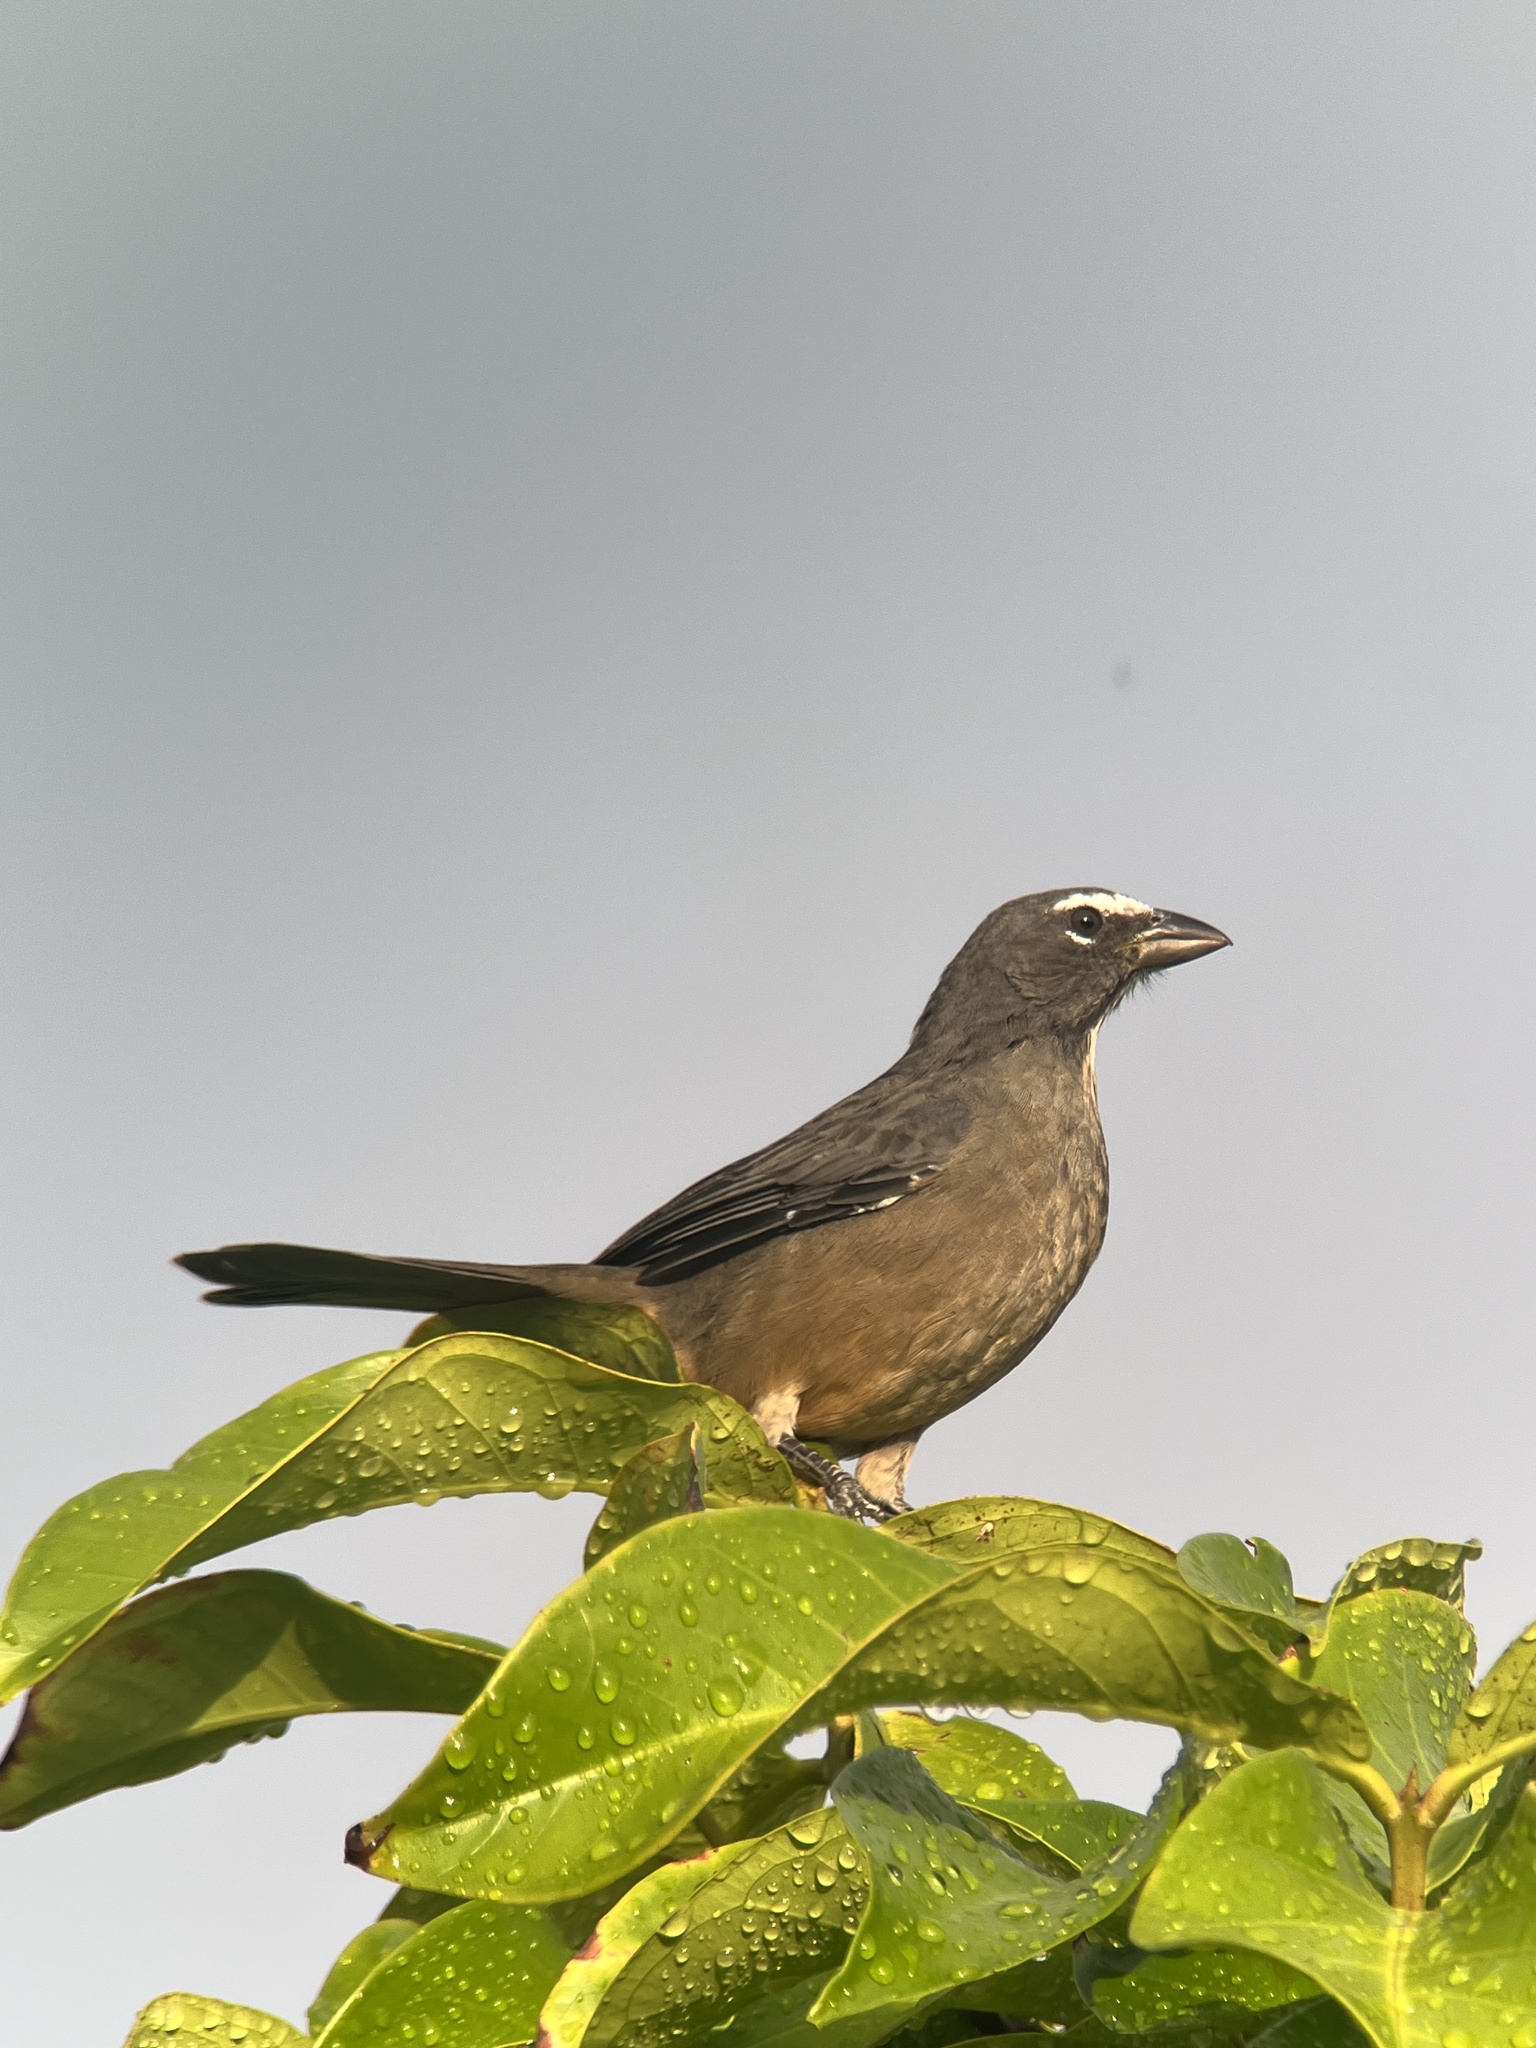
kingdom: Animalia
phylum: Chordata
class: Aves
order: Passeriformes
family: Thraupidae
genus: Saltator
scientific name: Saltator grandis
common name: Cinnamon-bellied saltator
